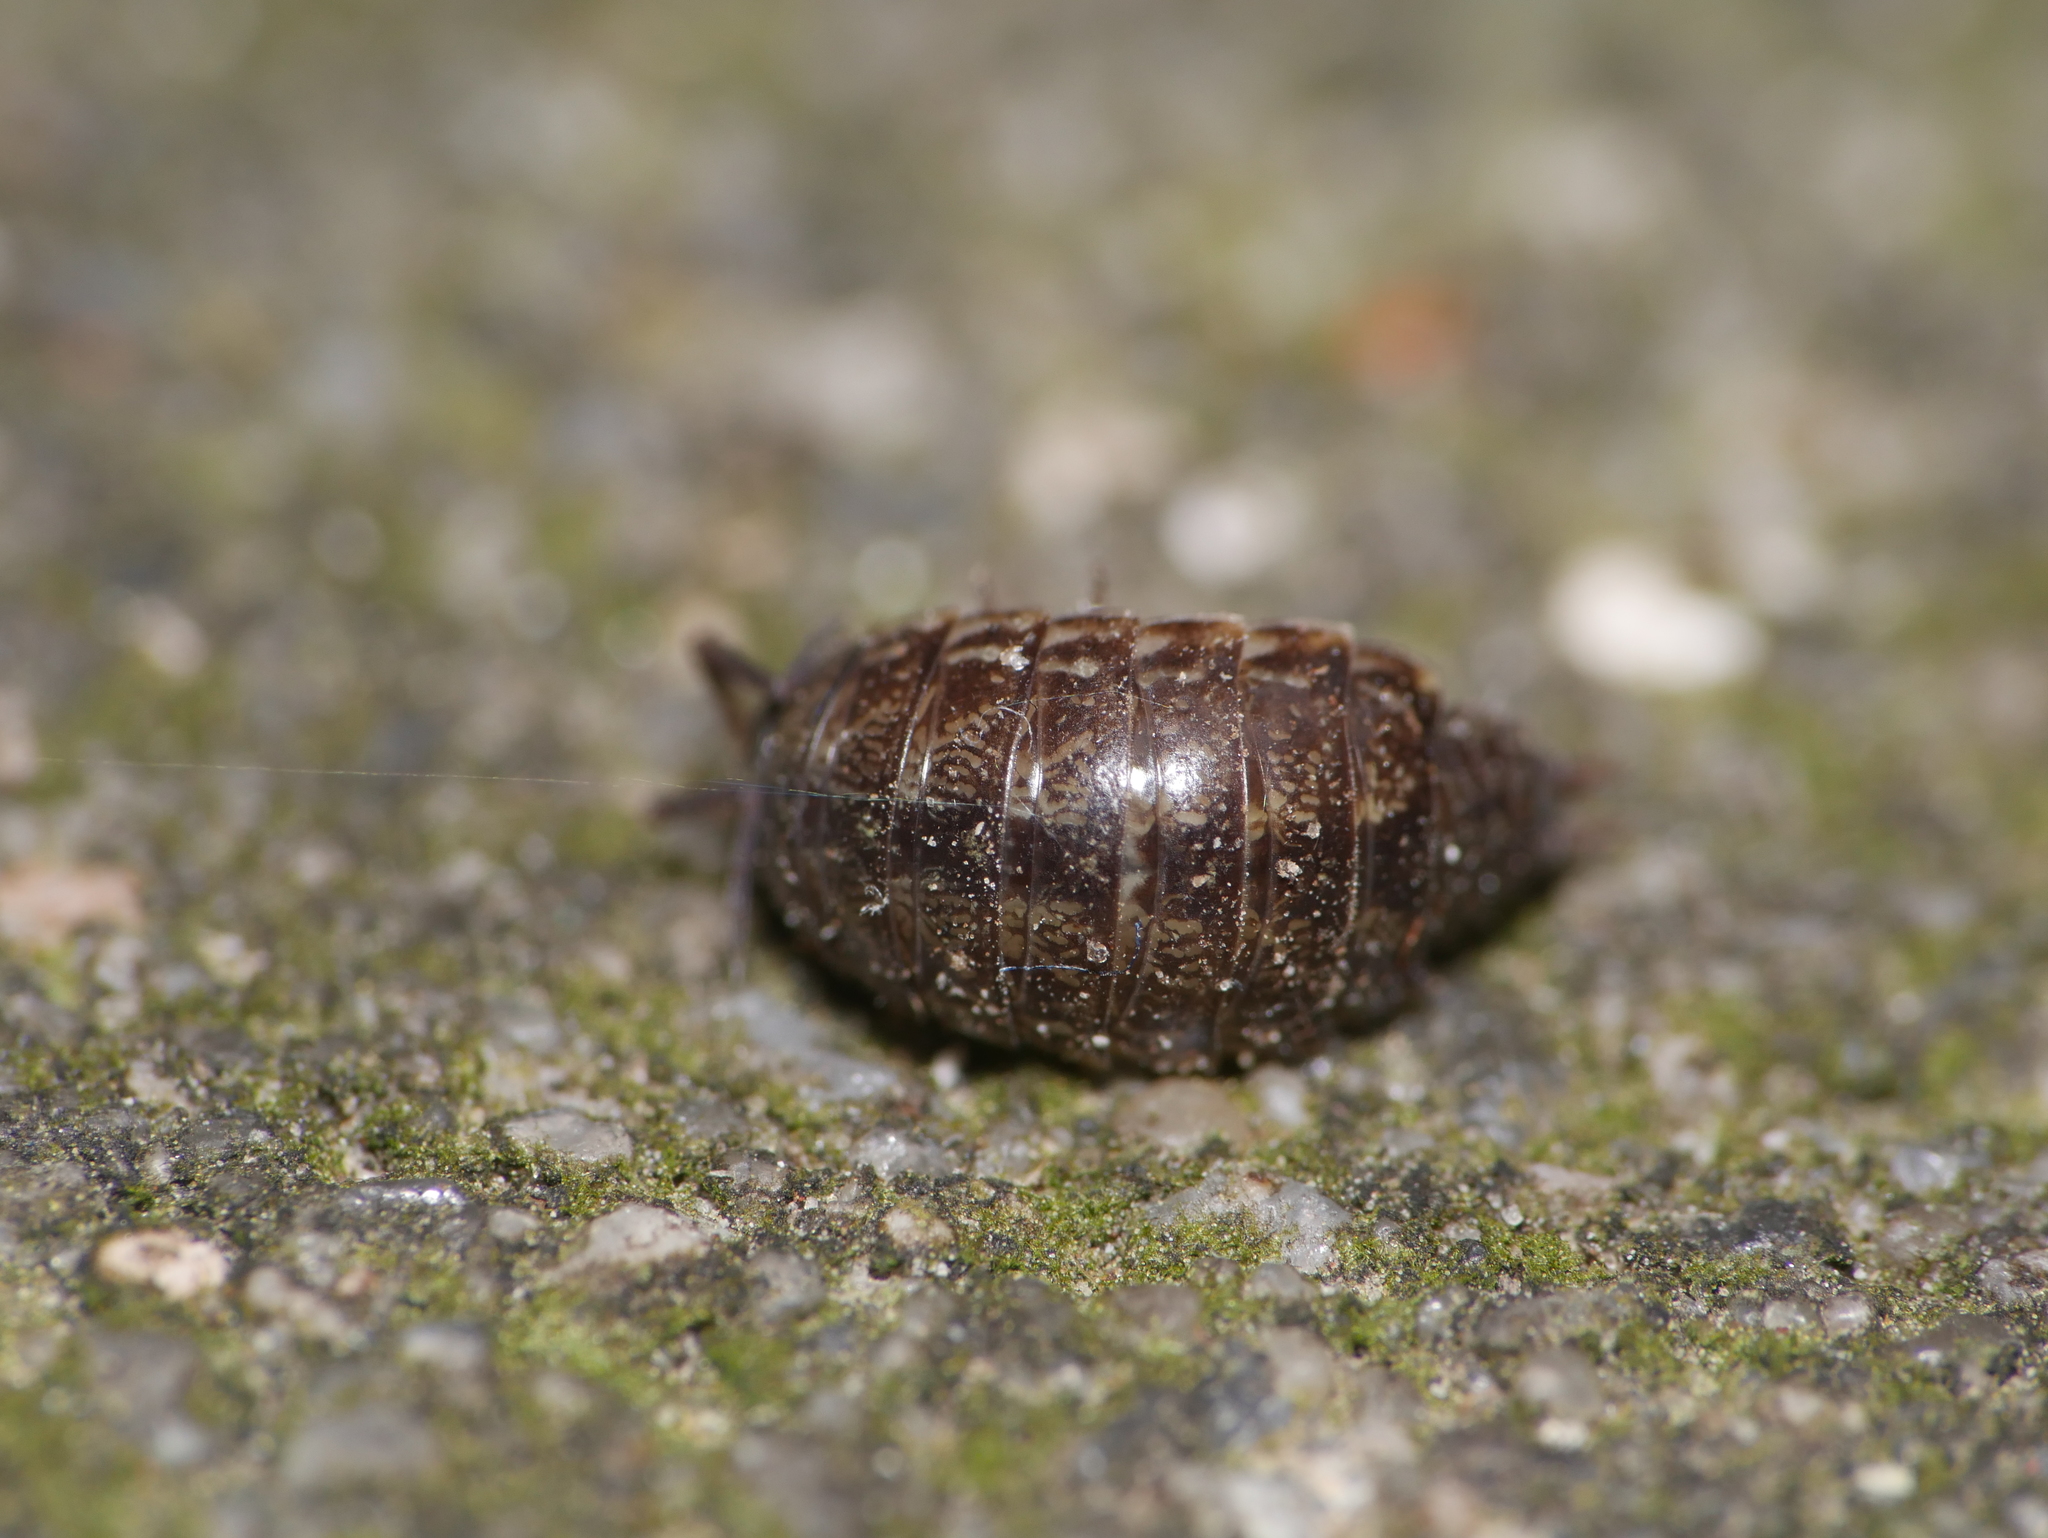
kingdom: Animalia
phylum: Arthropoda
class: Malacostraca
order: Isopoda
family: Philosciidae
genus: Philoscia
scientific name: Philoscia muscorum
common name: Common striped woodlouse
